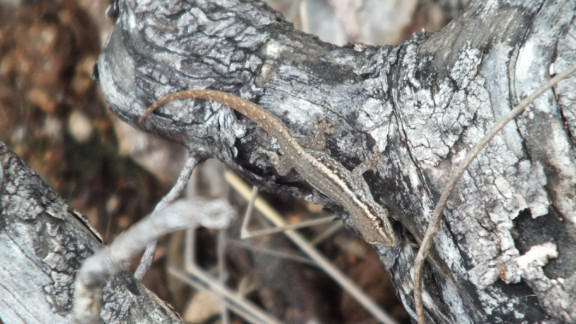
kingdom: Animalia
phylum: Chordata
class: Squamata
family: Gekkonidae
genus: Lygodactylus
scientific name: Lygodactylus capensis
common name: Cape dwarf gecko
